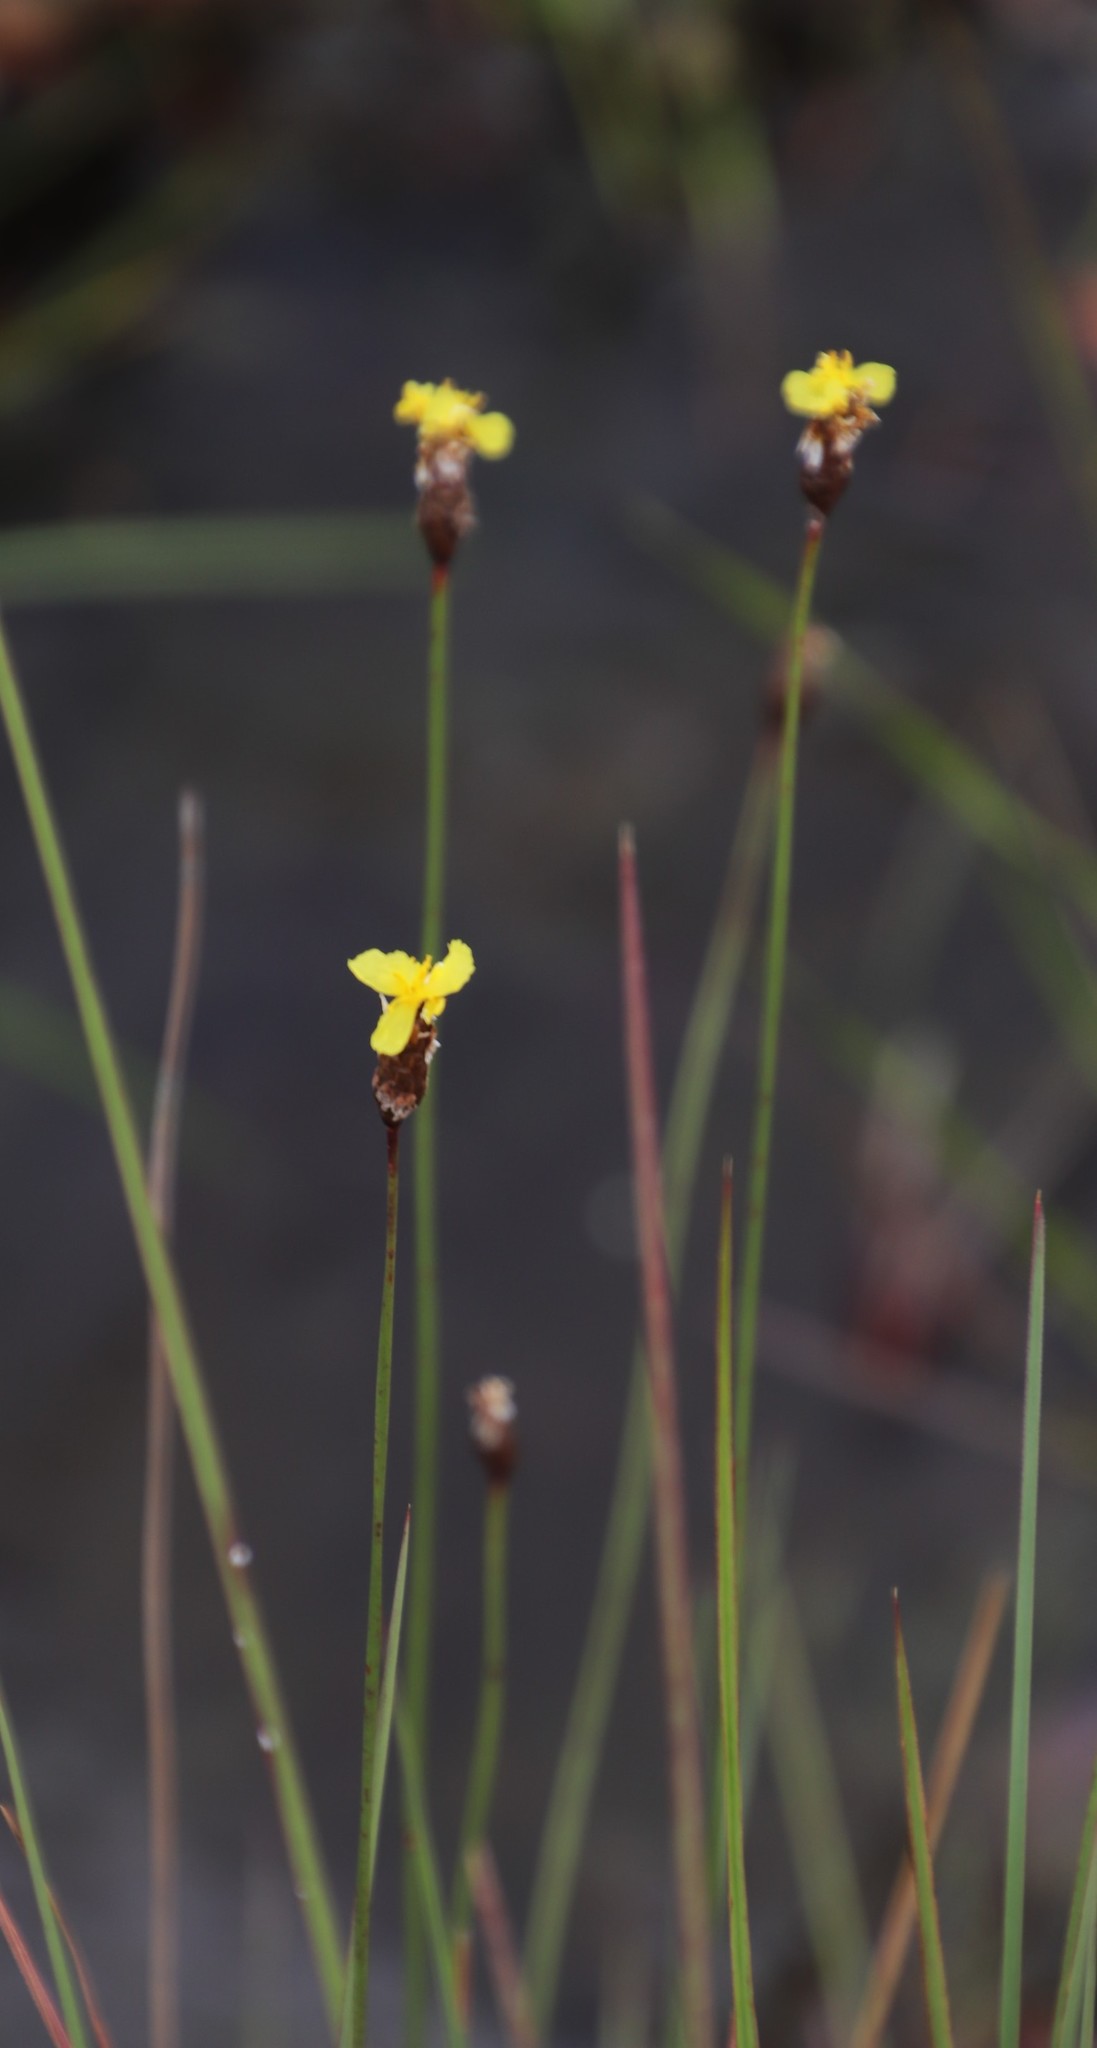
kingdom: Plantae
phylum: Tracheophyta
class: Liliopsida
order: Poales
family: Xyridaceae
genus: Xyris
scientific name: Xyris capensis
